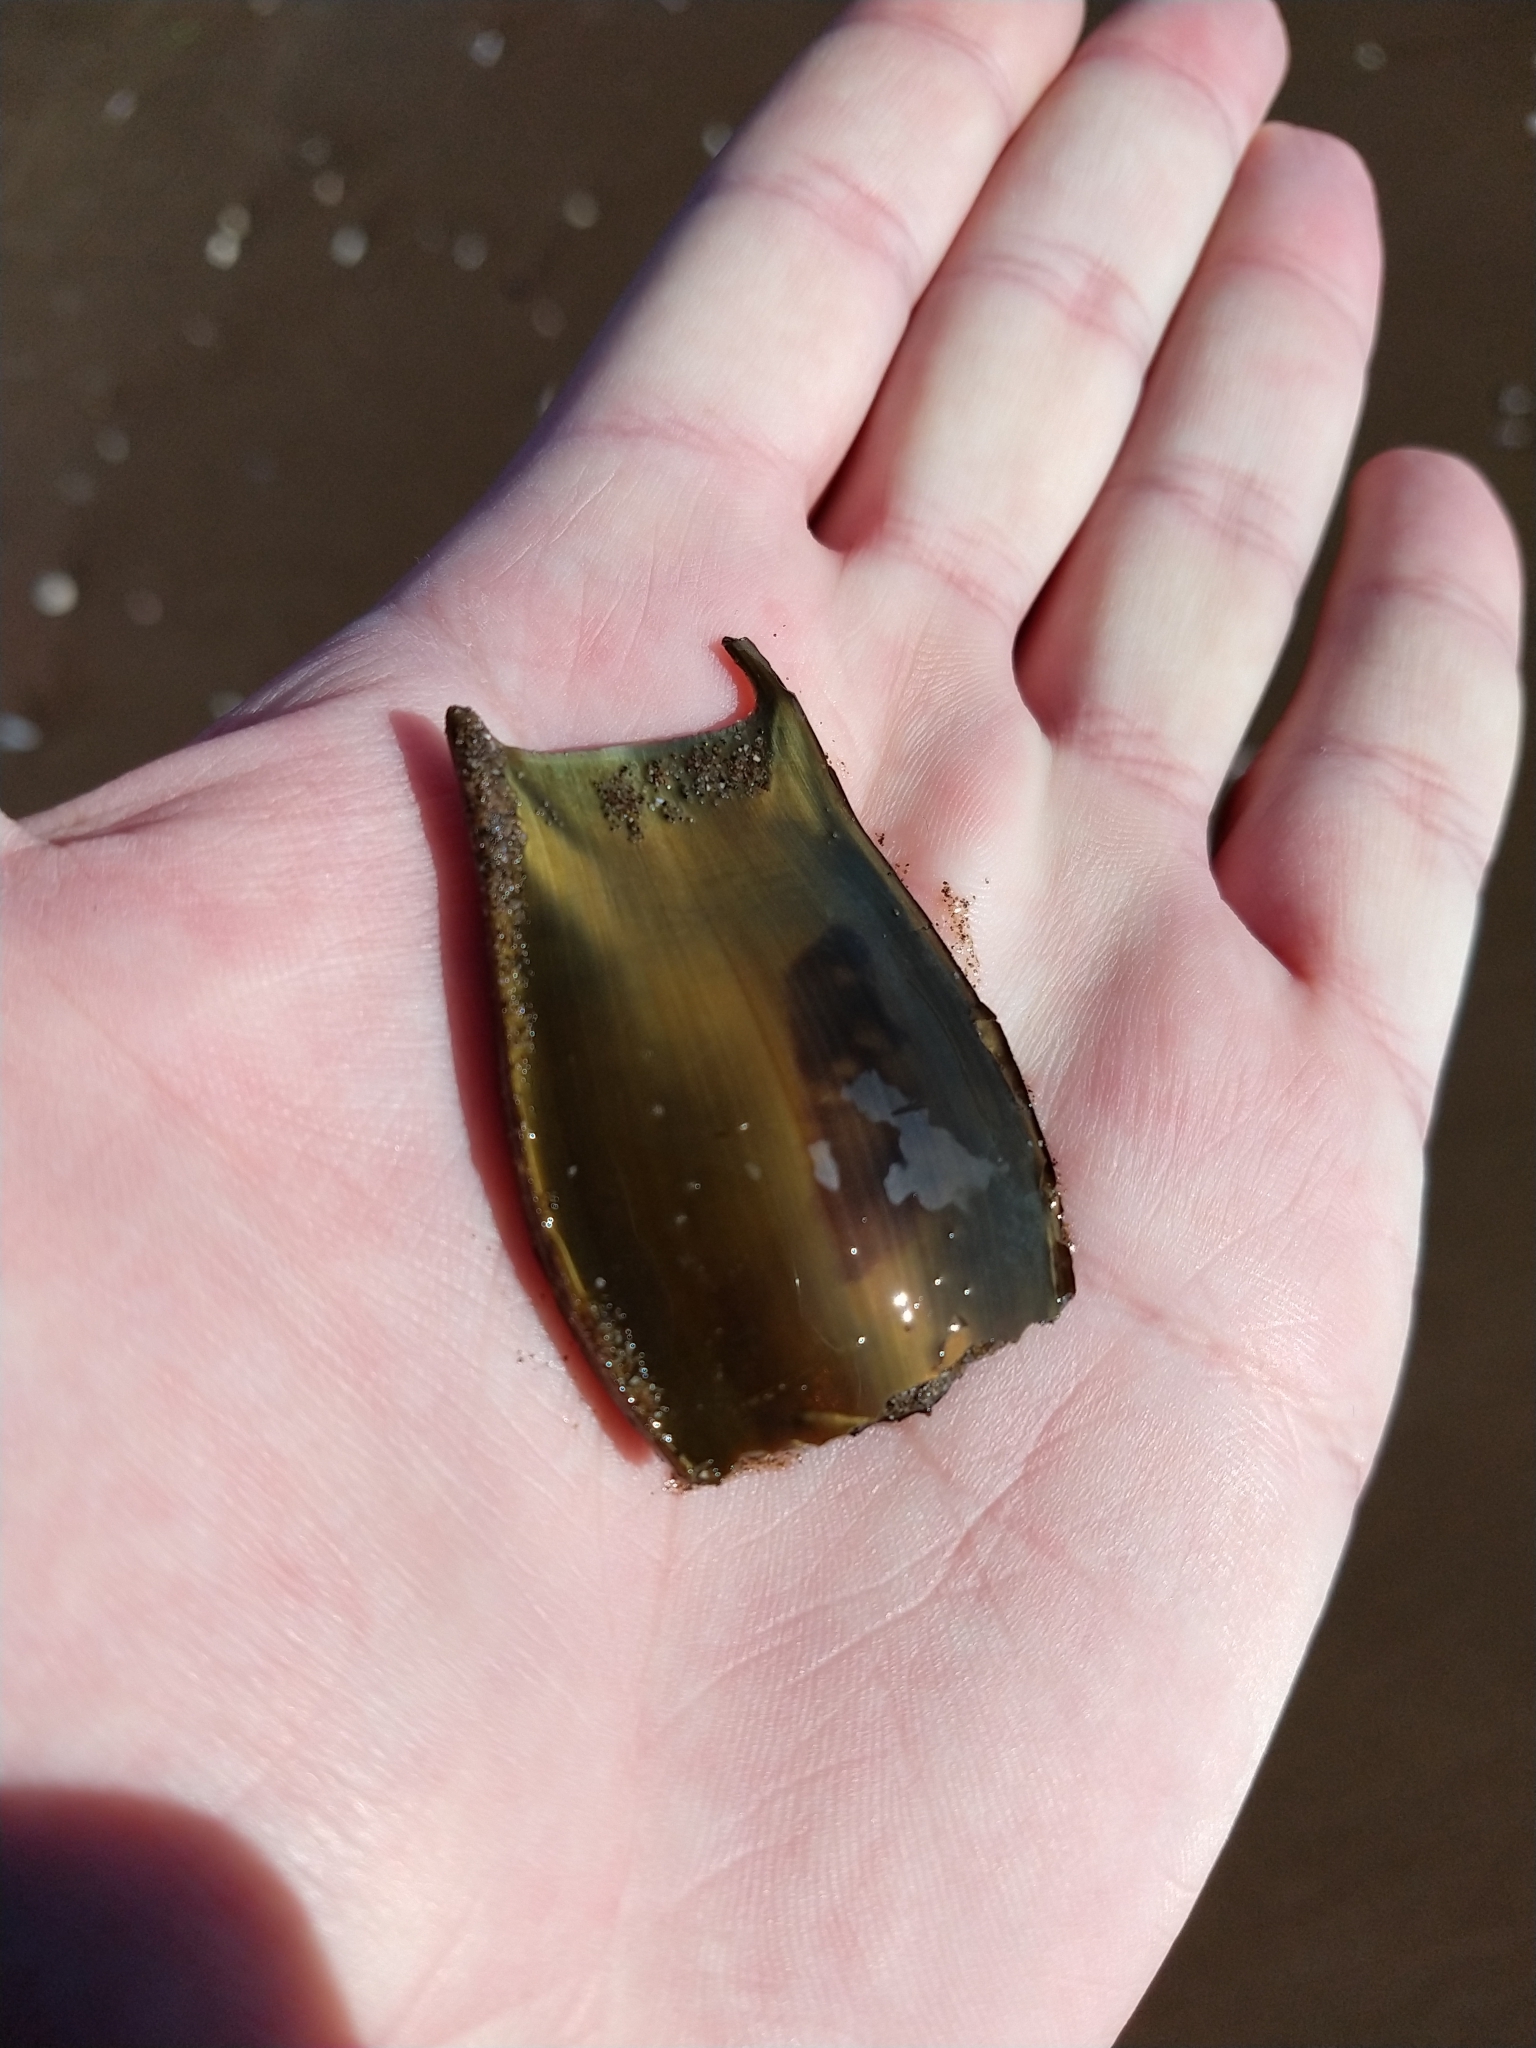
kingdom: Animalia
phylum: Chordata
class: Elasmobranchii
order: Rajiformes
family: Arhynchobatidae
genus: Sympterygia
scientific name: Sympterygia acuta
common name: Bignose fanskate
